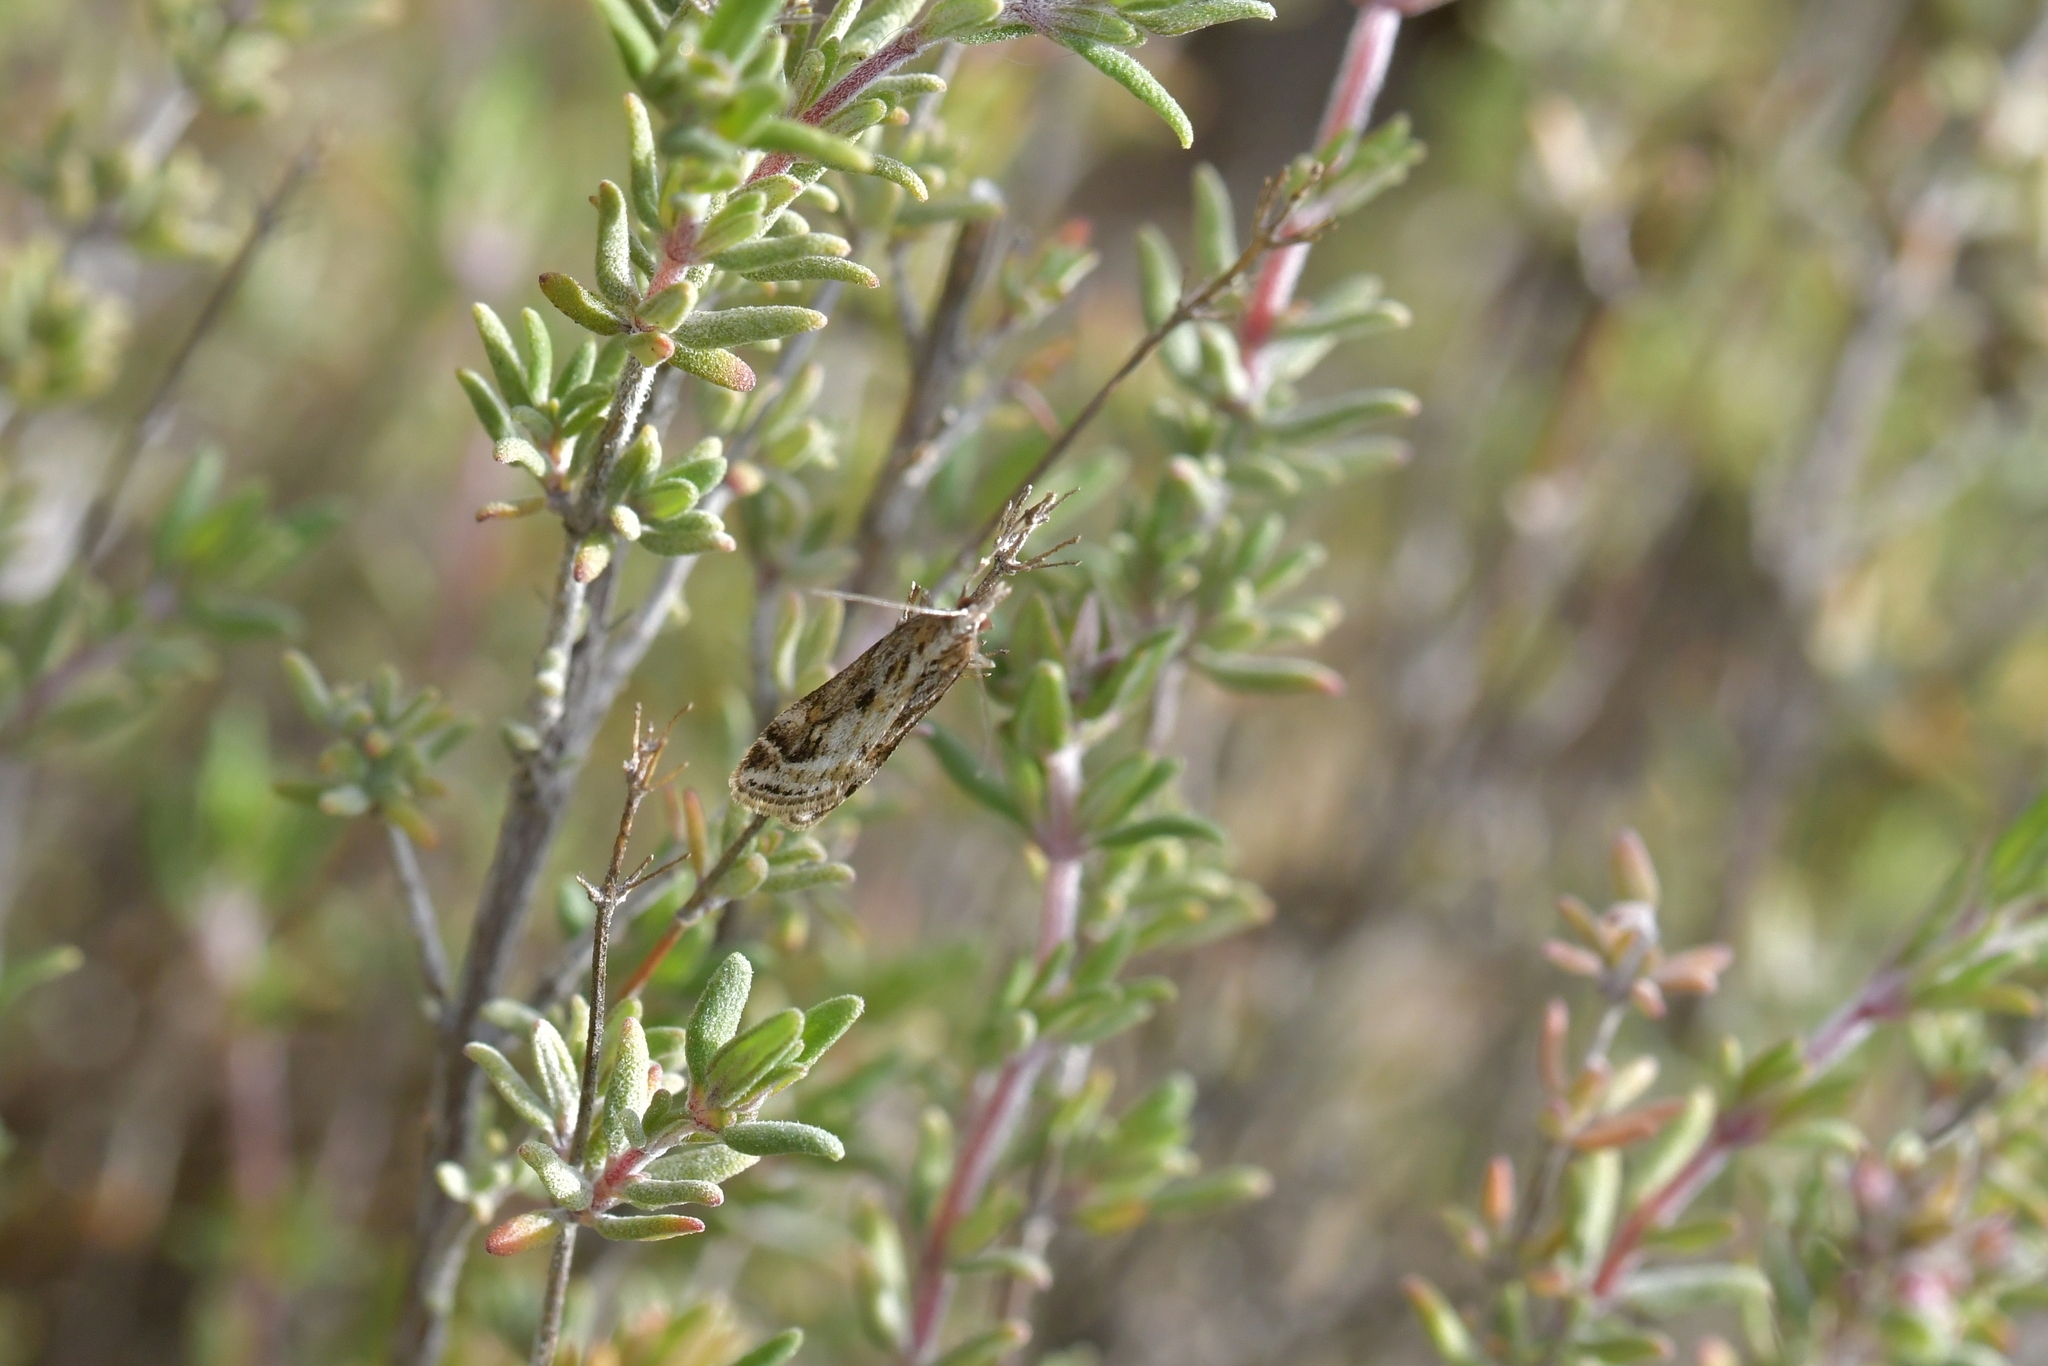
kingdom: Animalia
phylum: Arthropoda
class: Insecta
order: Lepidoptera
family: Crambidae
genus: Scoparia
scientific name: Scoparia exilis
